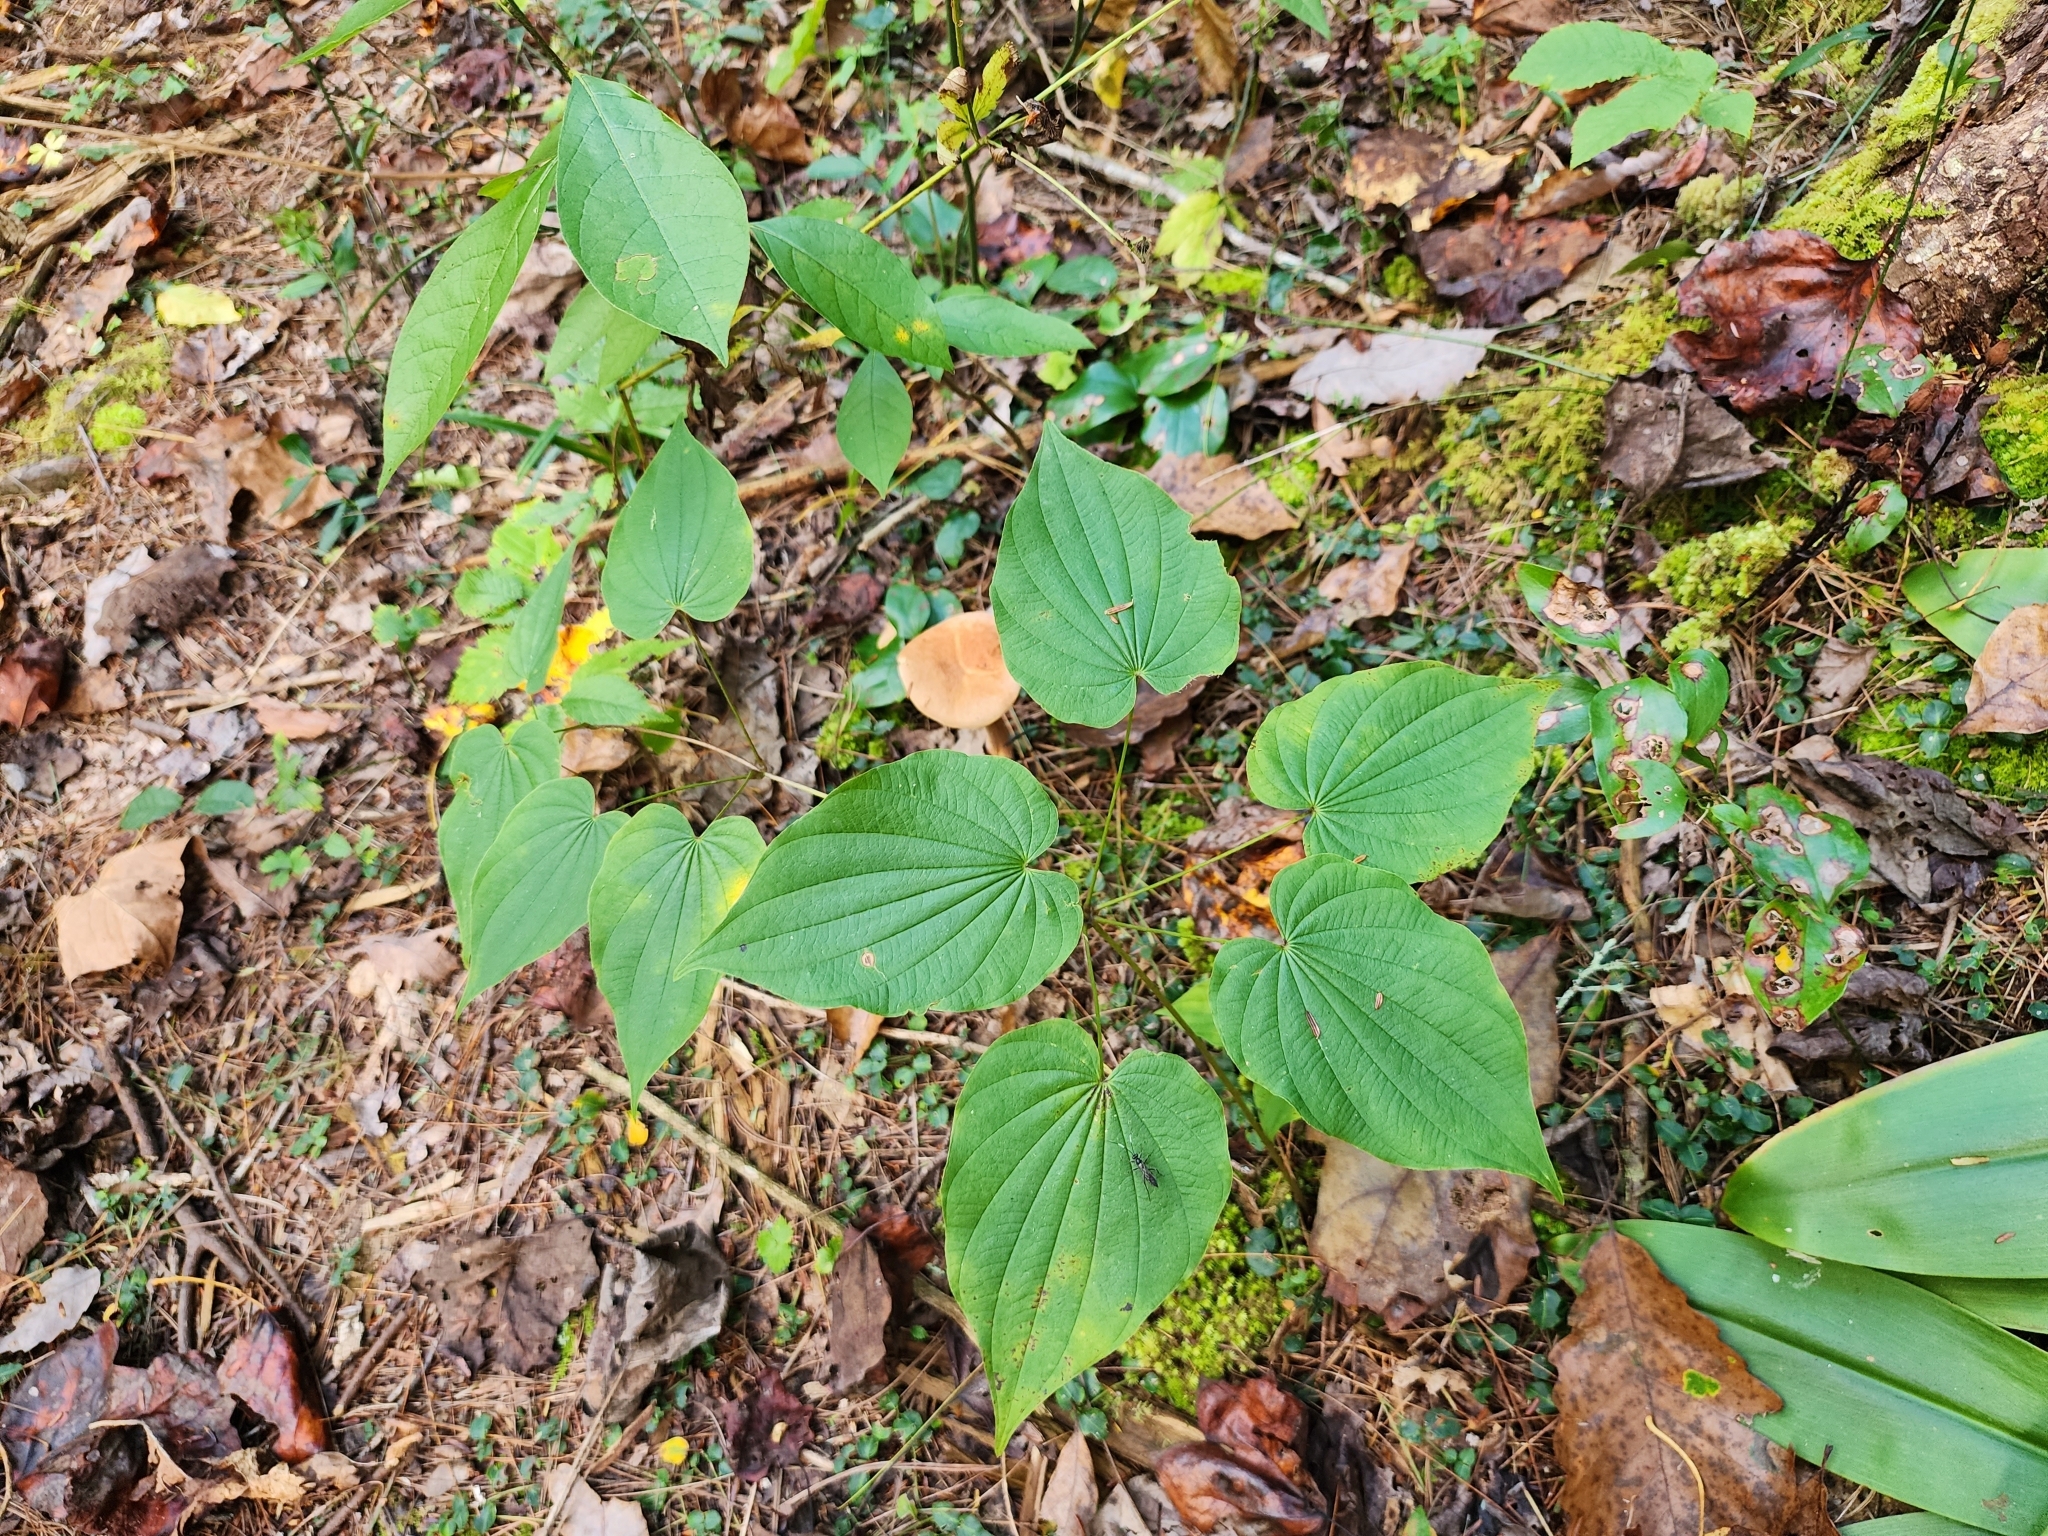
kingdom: Plantae
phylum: Tracheophyta
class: Liliopsida
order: Dioscoreales
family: Dioscoreaceae
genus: Dioscorea
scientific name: Dioscorea villosa
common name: Wild yam
